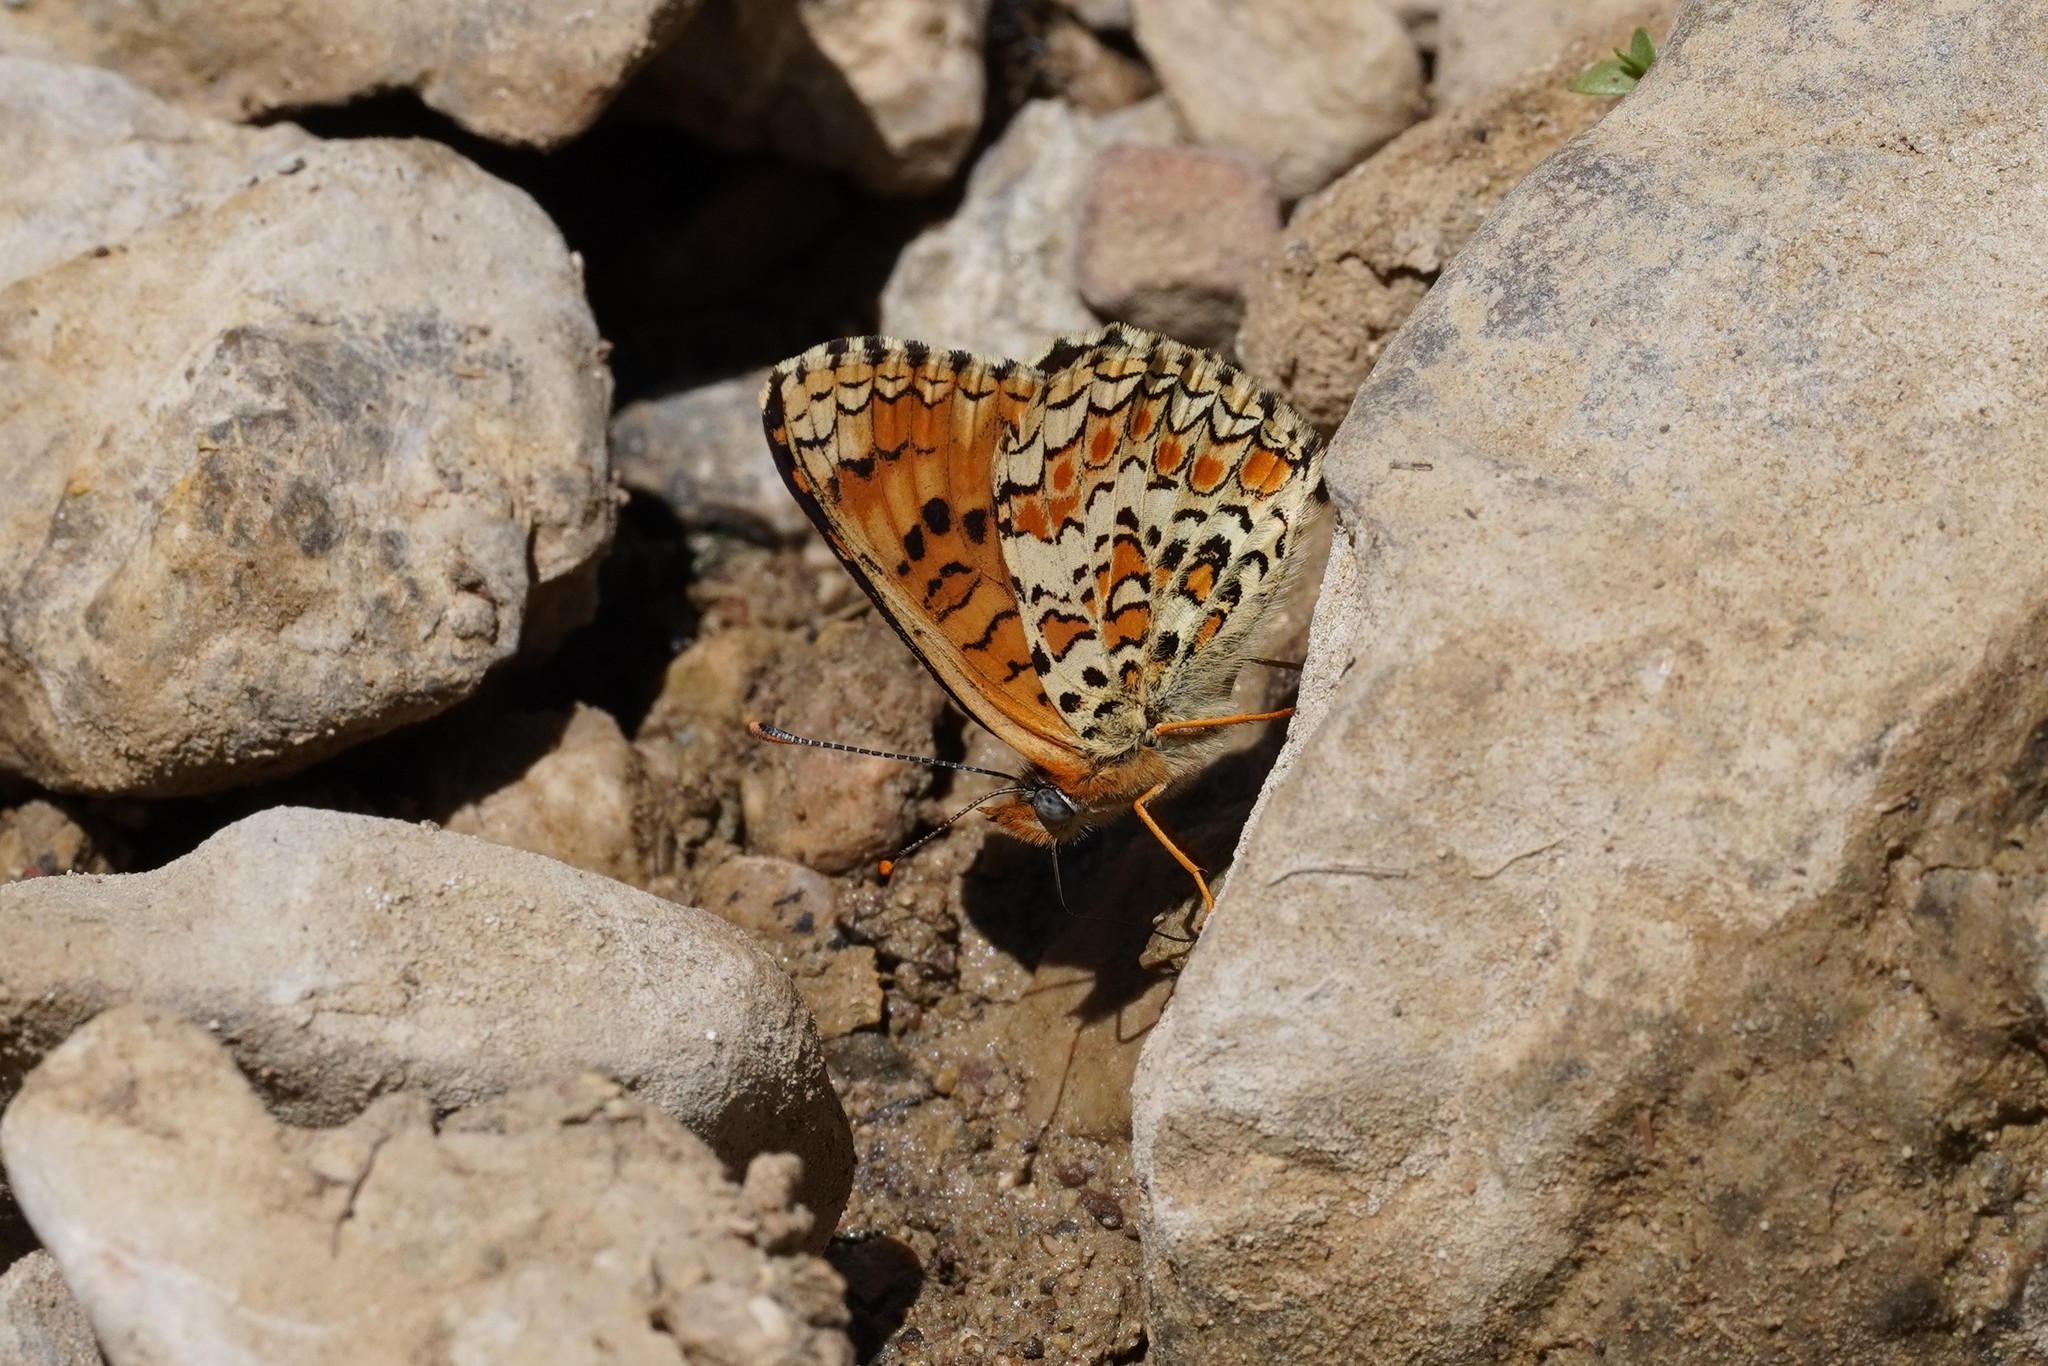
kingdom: Animalia
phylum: Arthropoda
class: Insecta
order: Lepidoptera
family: Nymphalidae
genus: Melitaea
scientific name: Melitaea phoebe
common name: Knapweed fritillary
